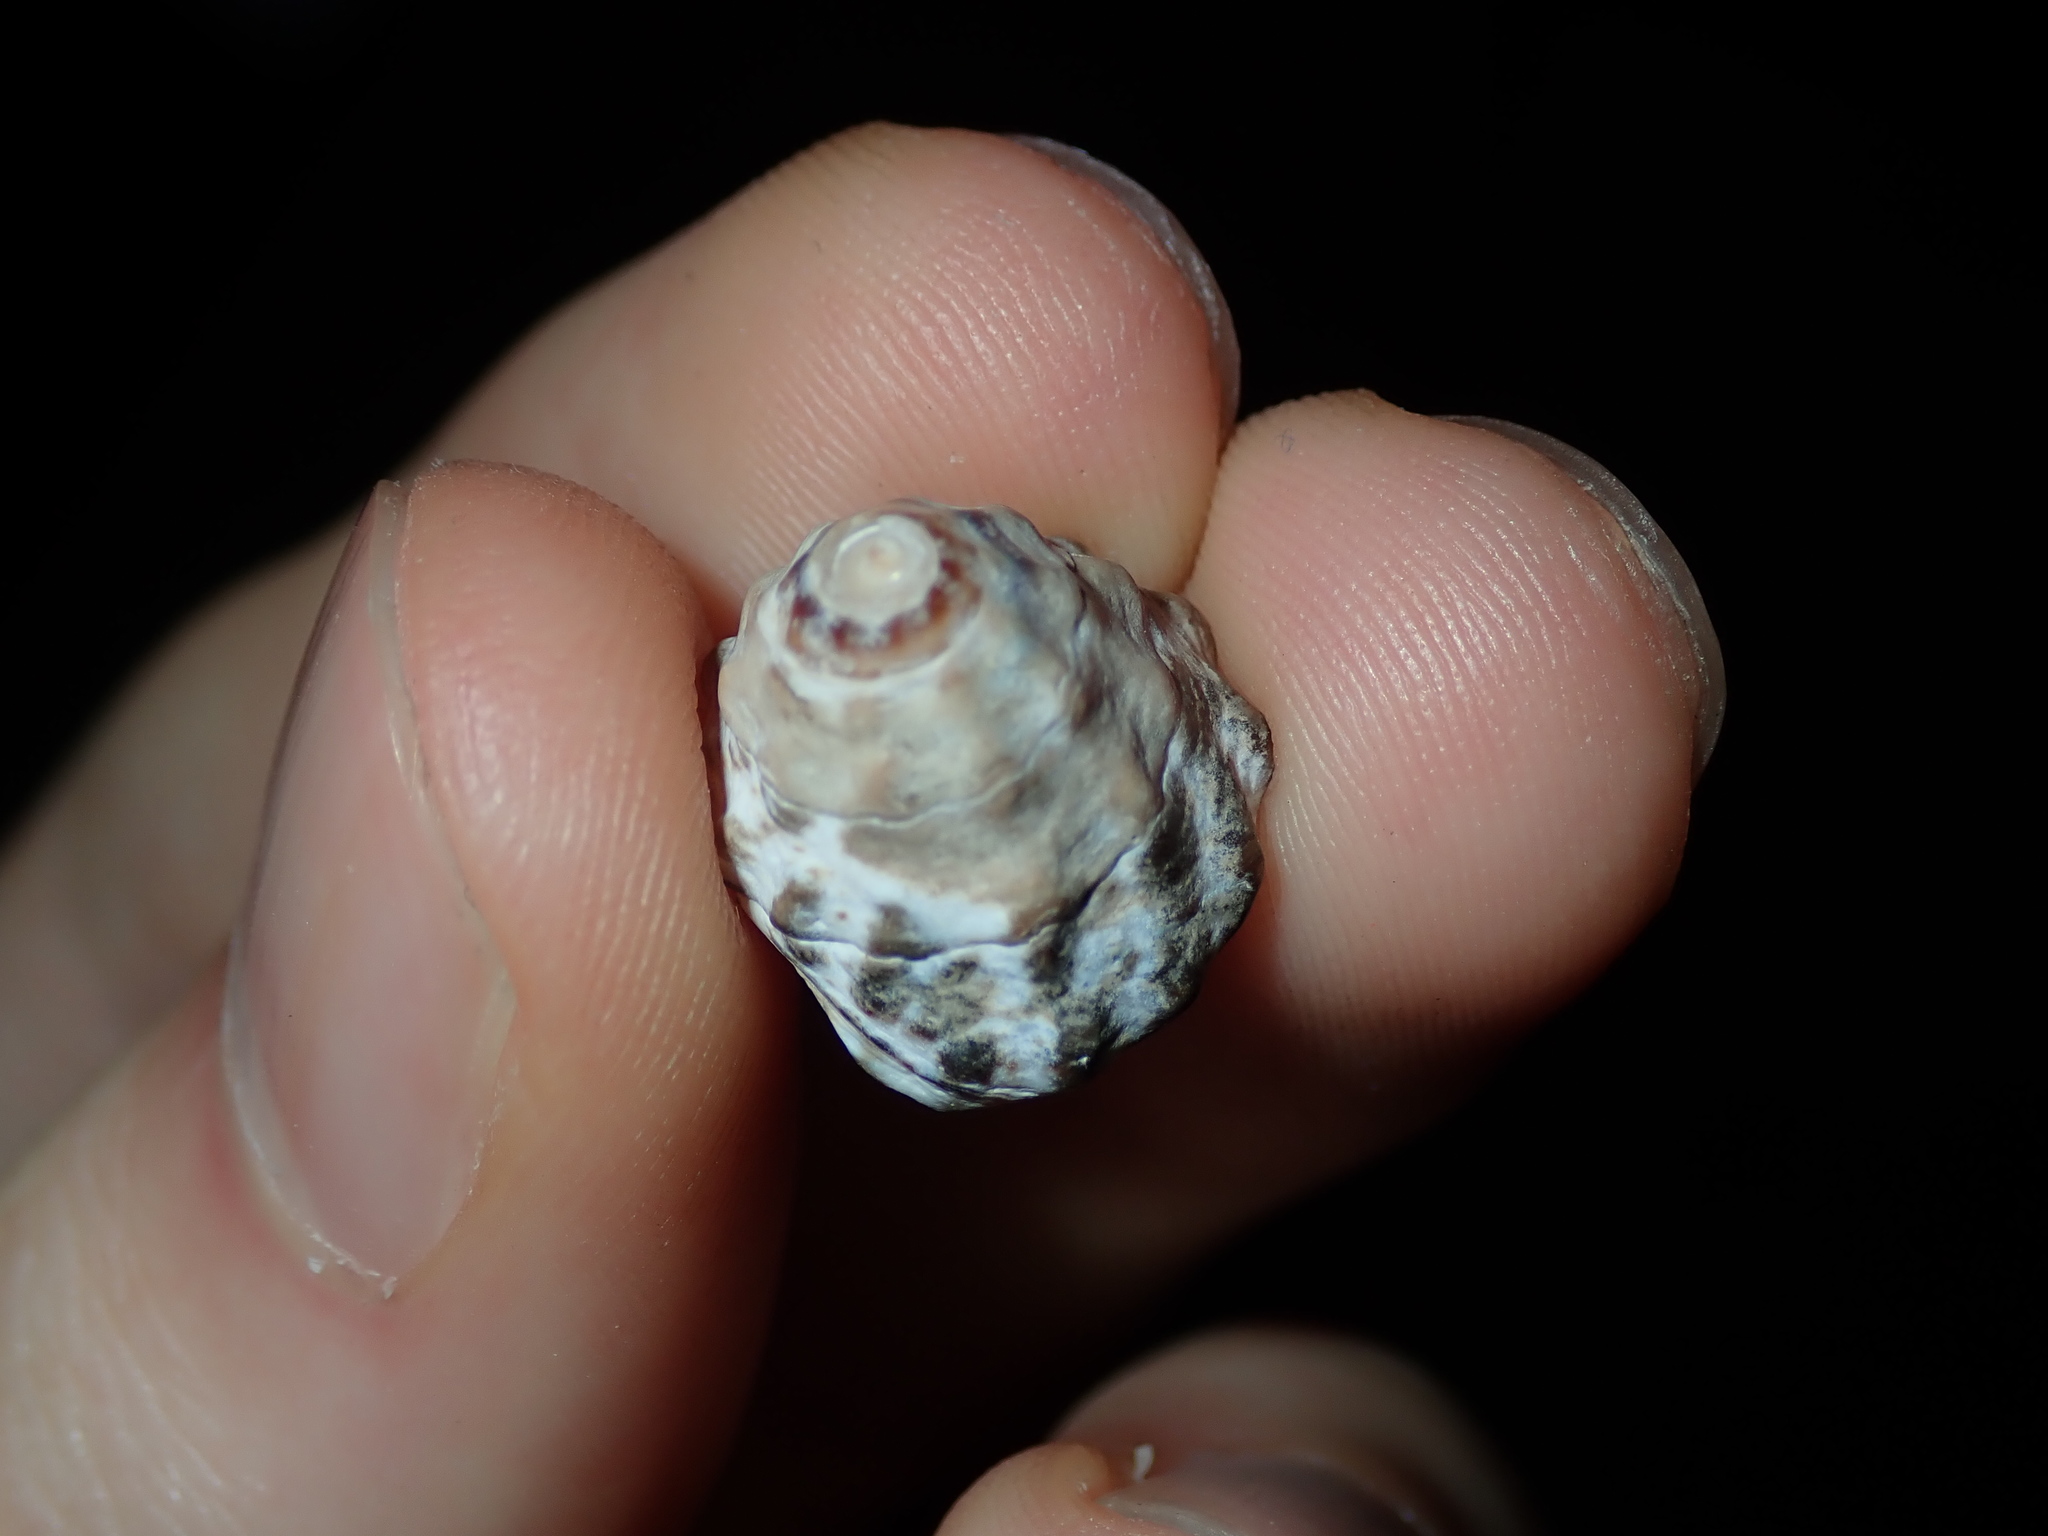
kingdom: Animalia
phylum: Mollusca
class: Gastropoda
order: Littorinimorpha
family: Littorinidae
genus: Bembicium
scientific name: Bembicium auratum
